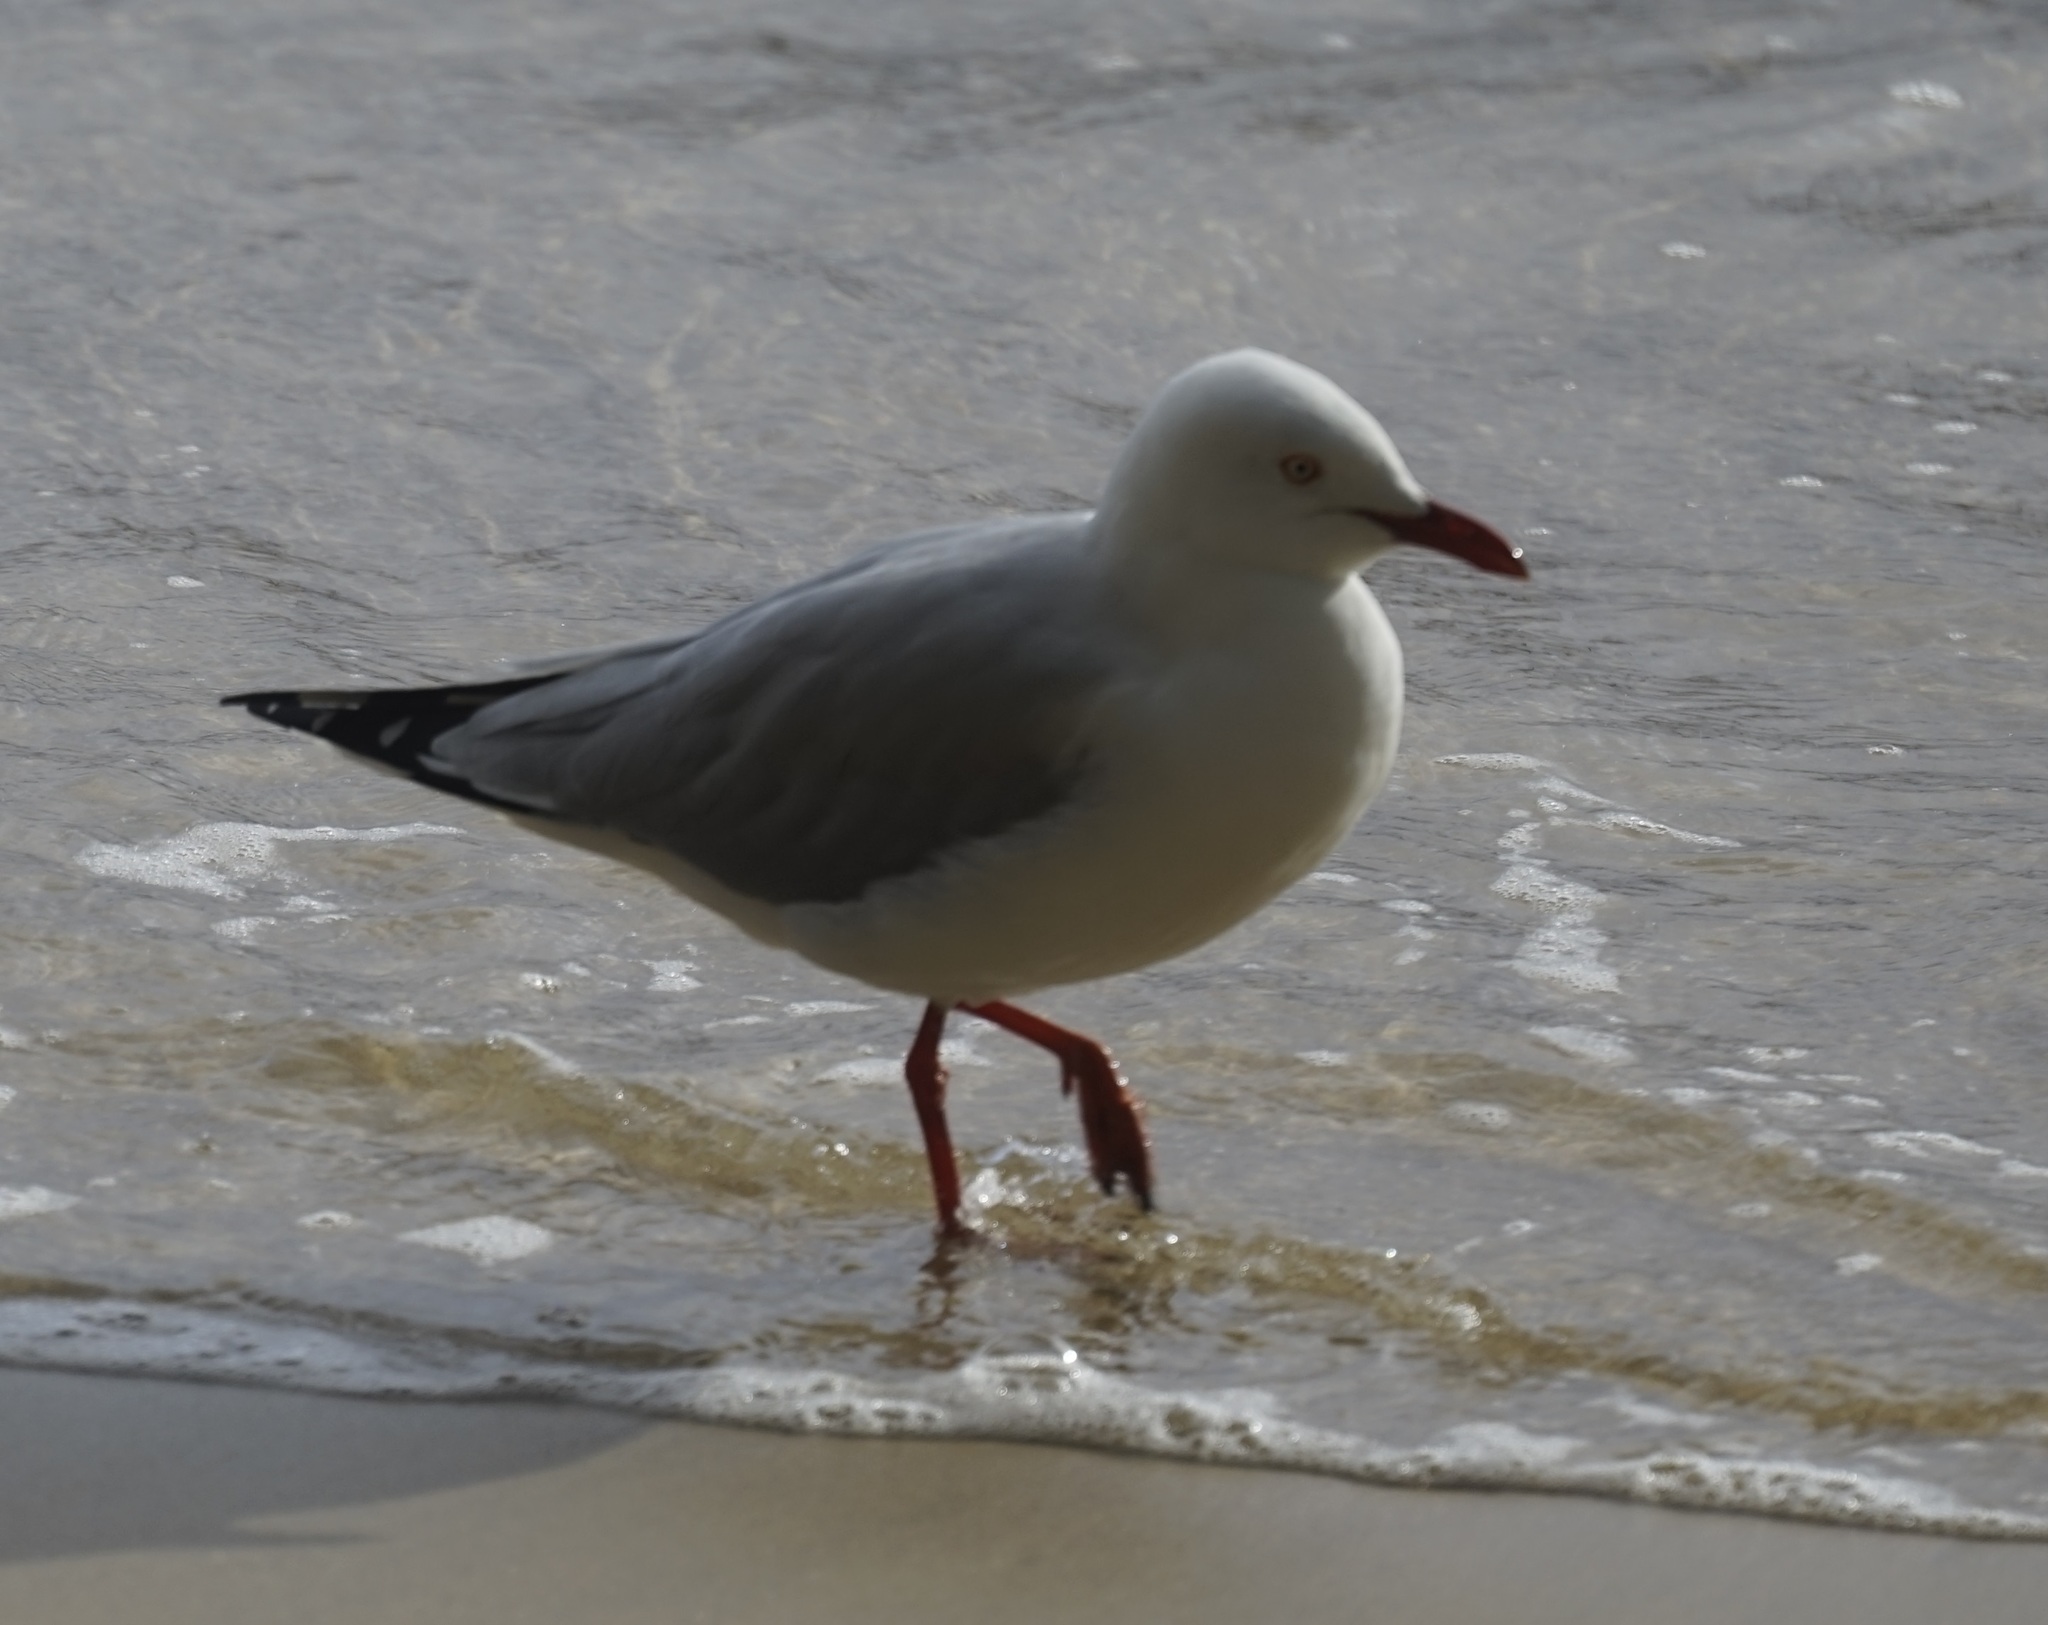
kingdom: Animalia
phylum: Chordata
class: Aves
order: Charadriiformes
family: Laridae
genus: Chroicocephalus
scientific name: Chroicocephalus novaehollandiae
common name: Silver gull
